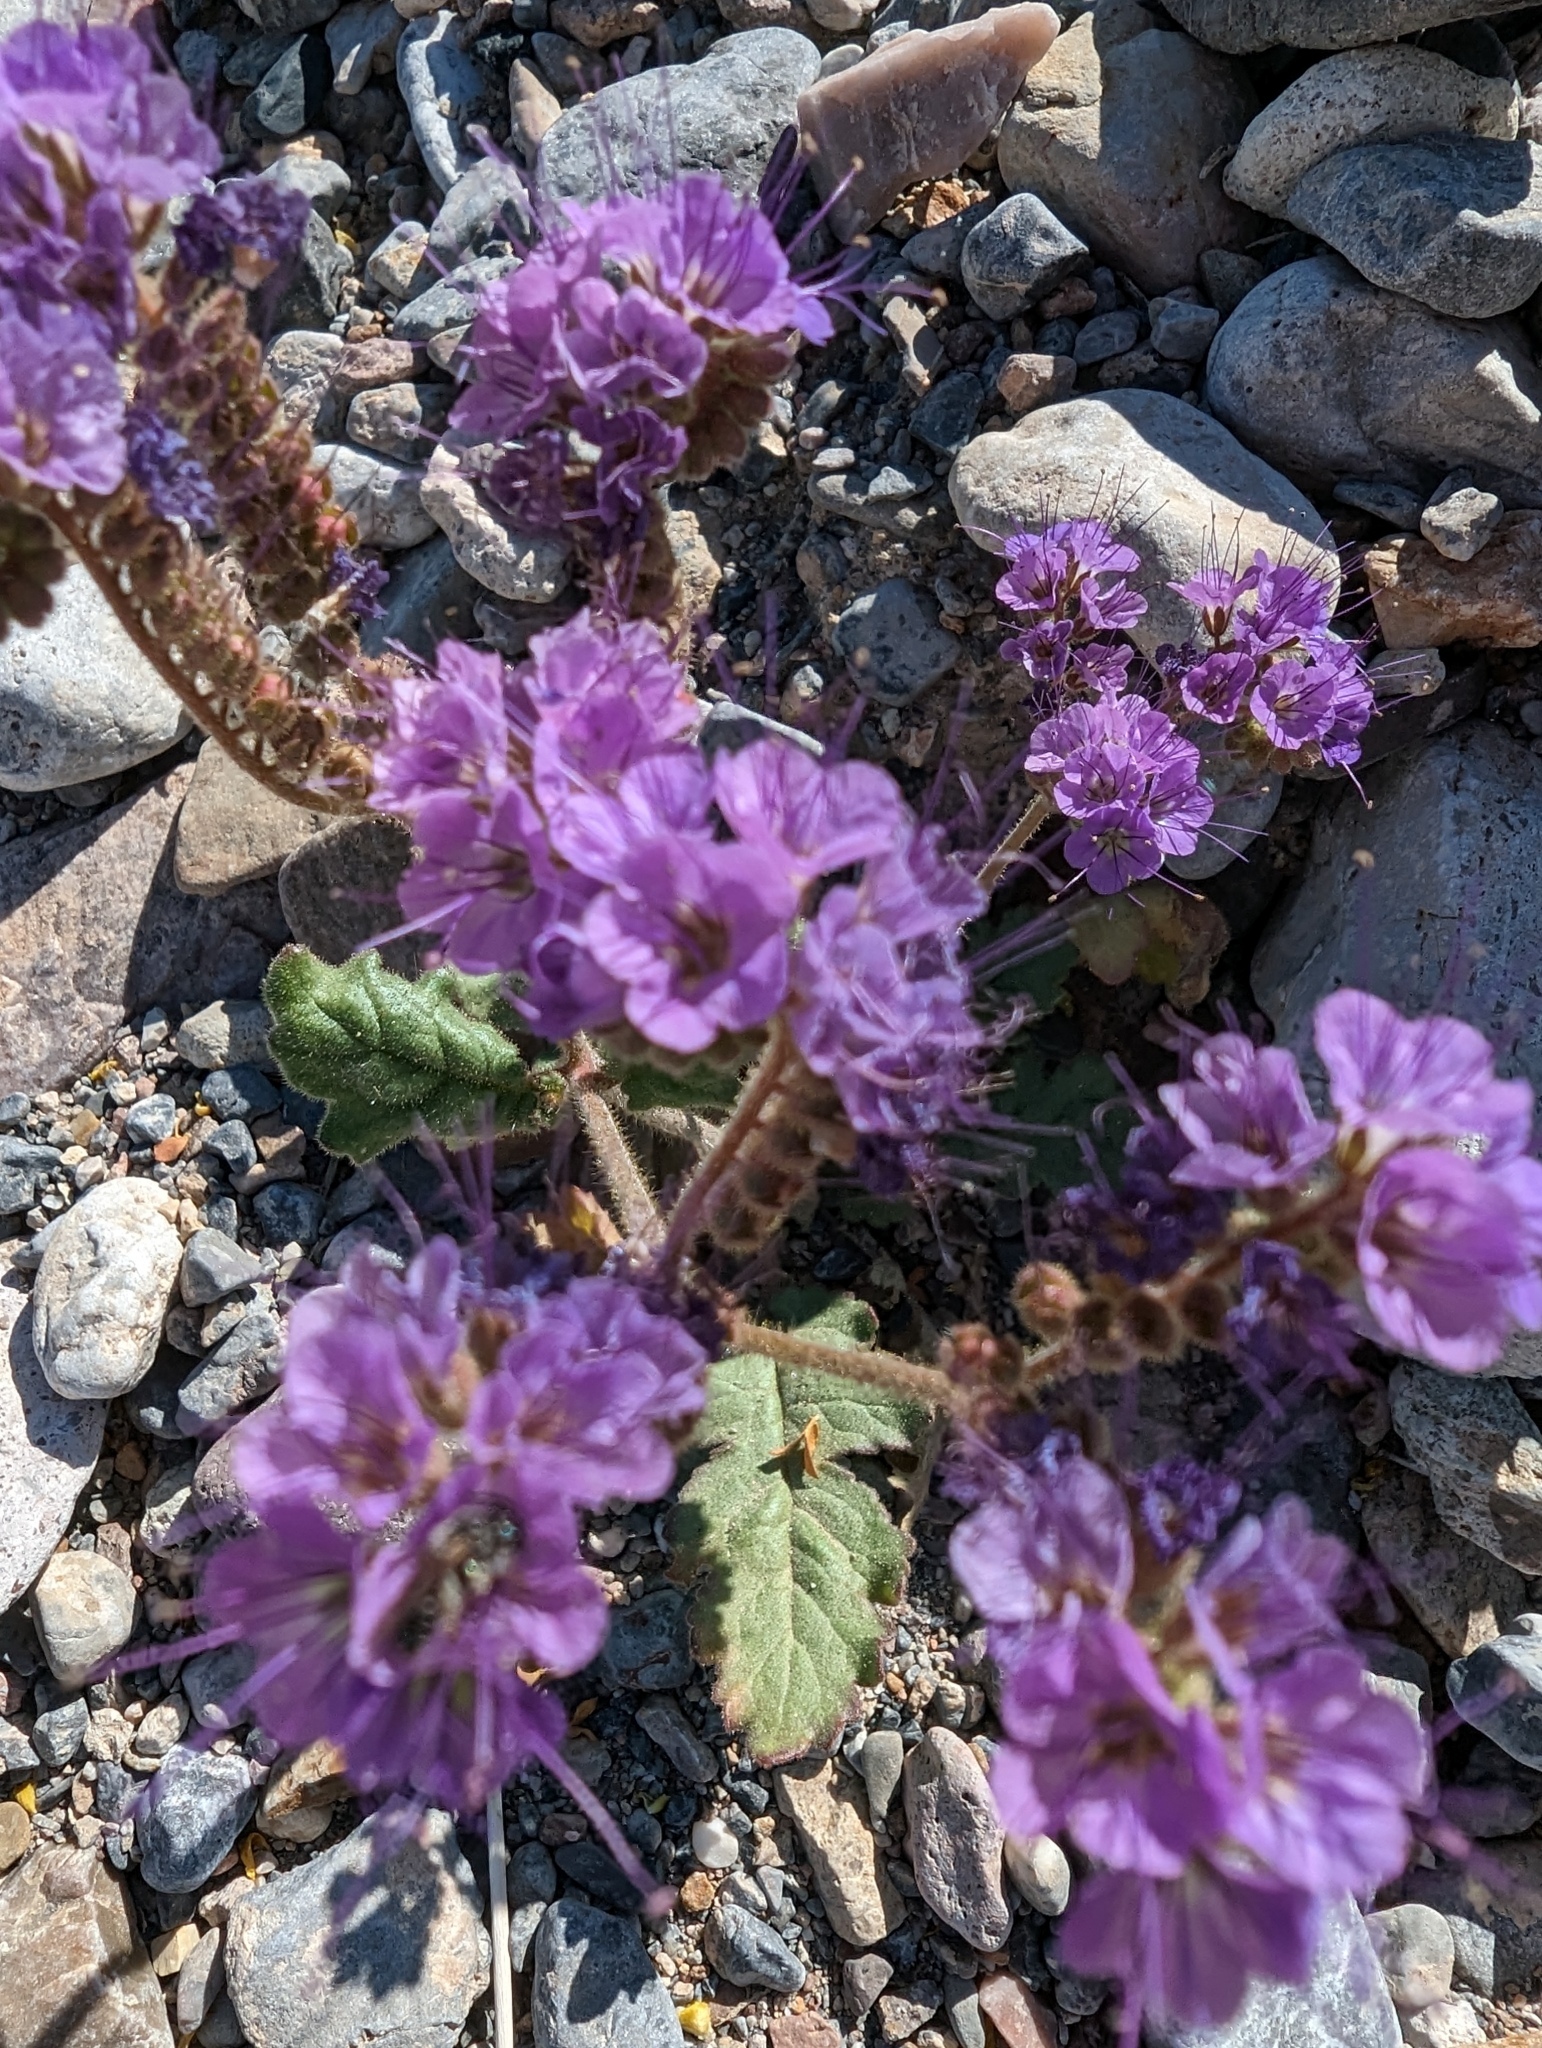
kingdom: Plantae
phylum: Tracheophyta
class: Magnoliopsida
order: Boraginales
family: Hydrophyllaceae
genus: Phacelia
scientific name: Phacelia crenulata
